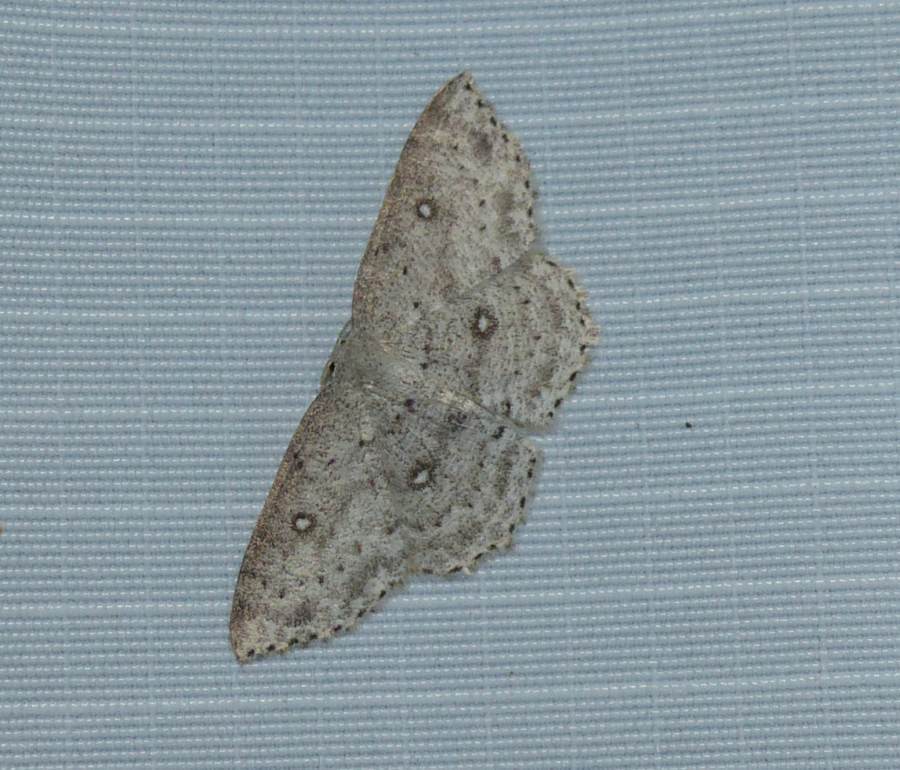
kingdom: Animalia
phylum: Arthropoda
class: Insecta
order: Lepidoptera
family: Geometridae
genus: Cyclophora
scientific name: Cyclophora pendulinaria
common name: Sweet fern geometer
